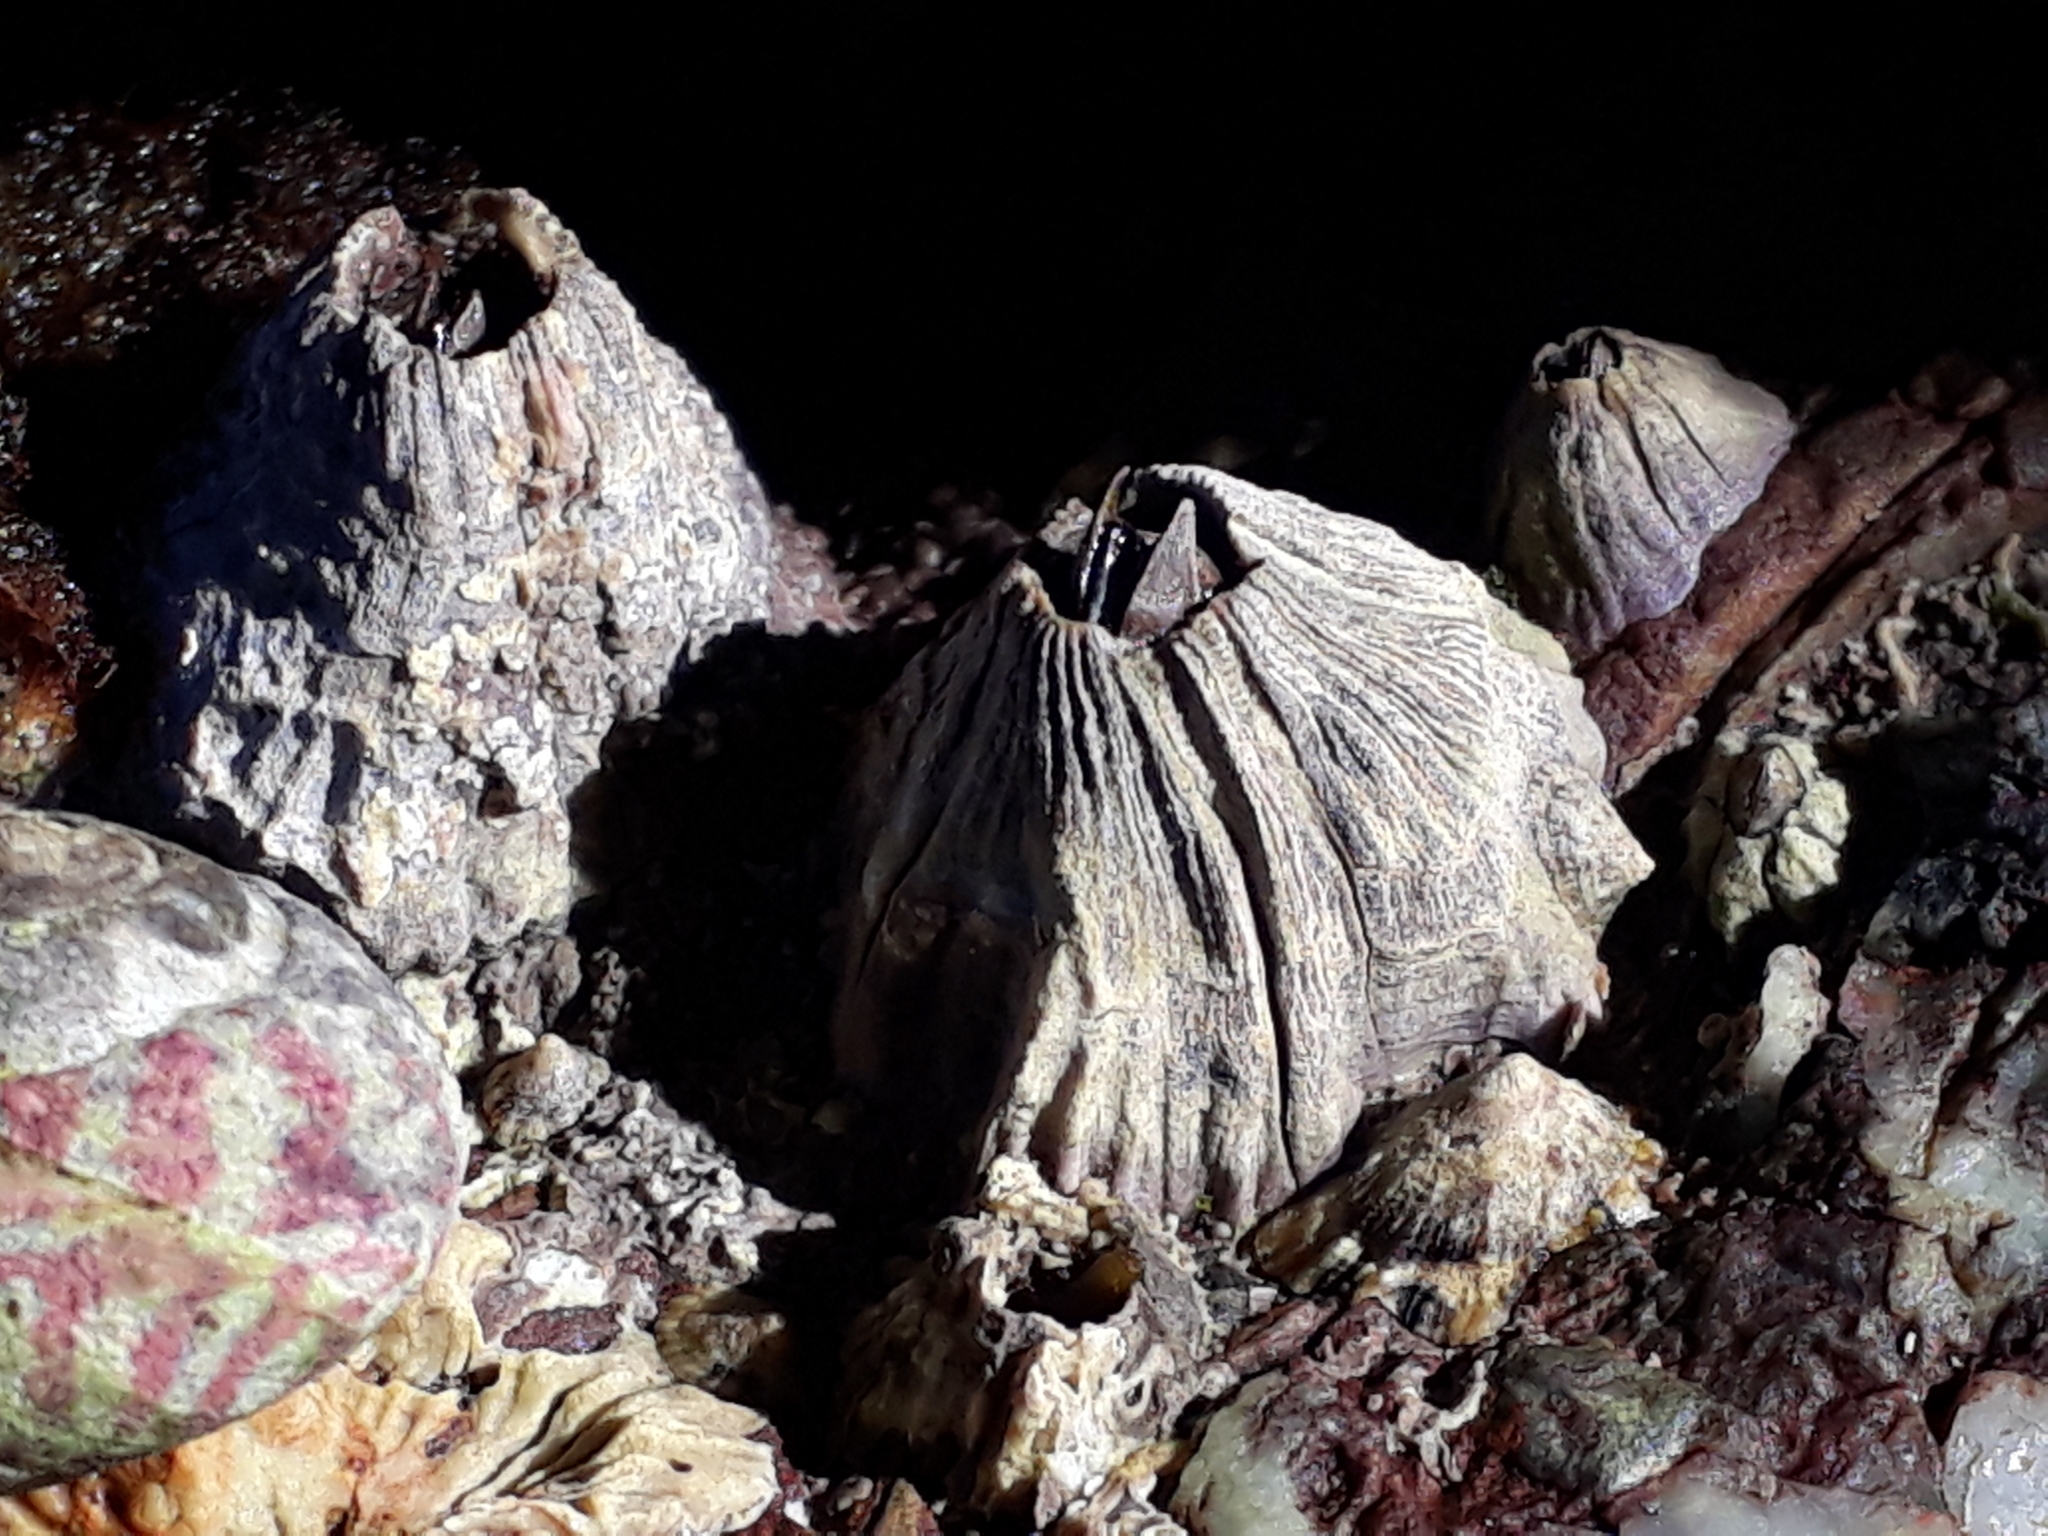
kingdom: Animalia
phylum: Arthropoda
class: Maxillopoda
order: Sessilia
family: Balanidae
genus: Perforatus
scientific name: Perforatus perforatus
